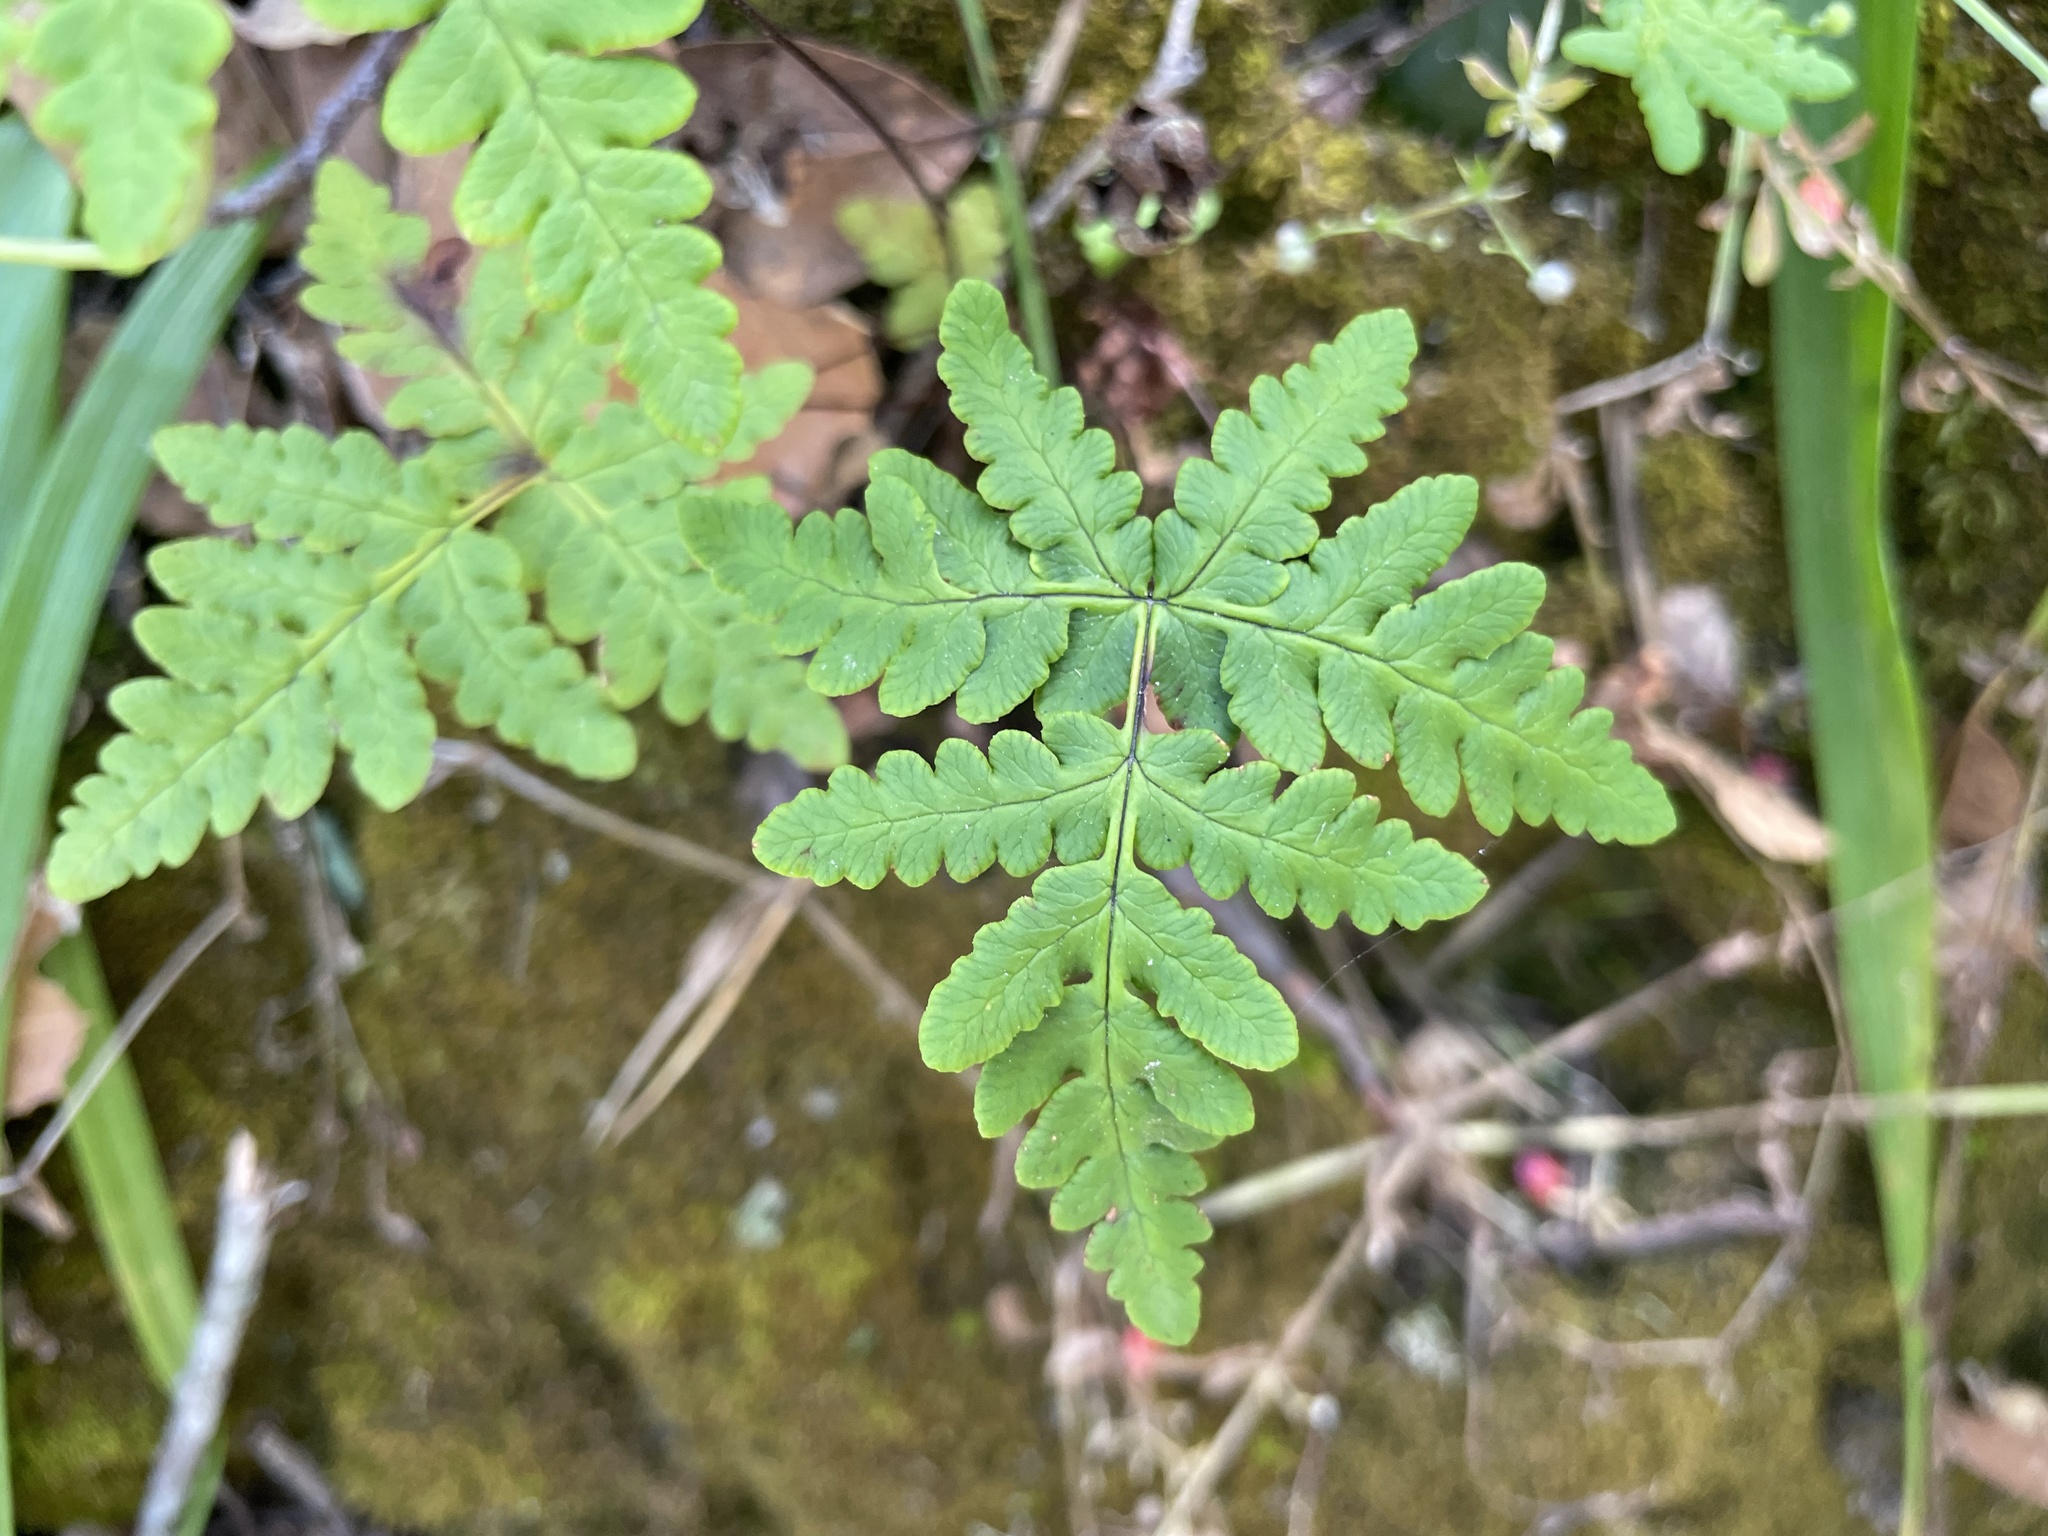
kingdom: Plantae
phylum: Tracheophyta
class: Polypodiopsida
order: Polypodiales
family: Pteridaceae
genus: Pentagramma
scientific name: Pentagramma triangularis
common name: Gold fern
